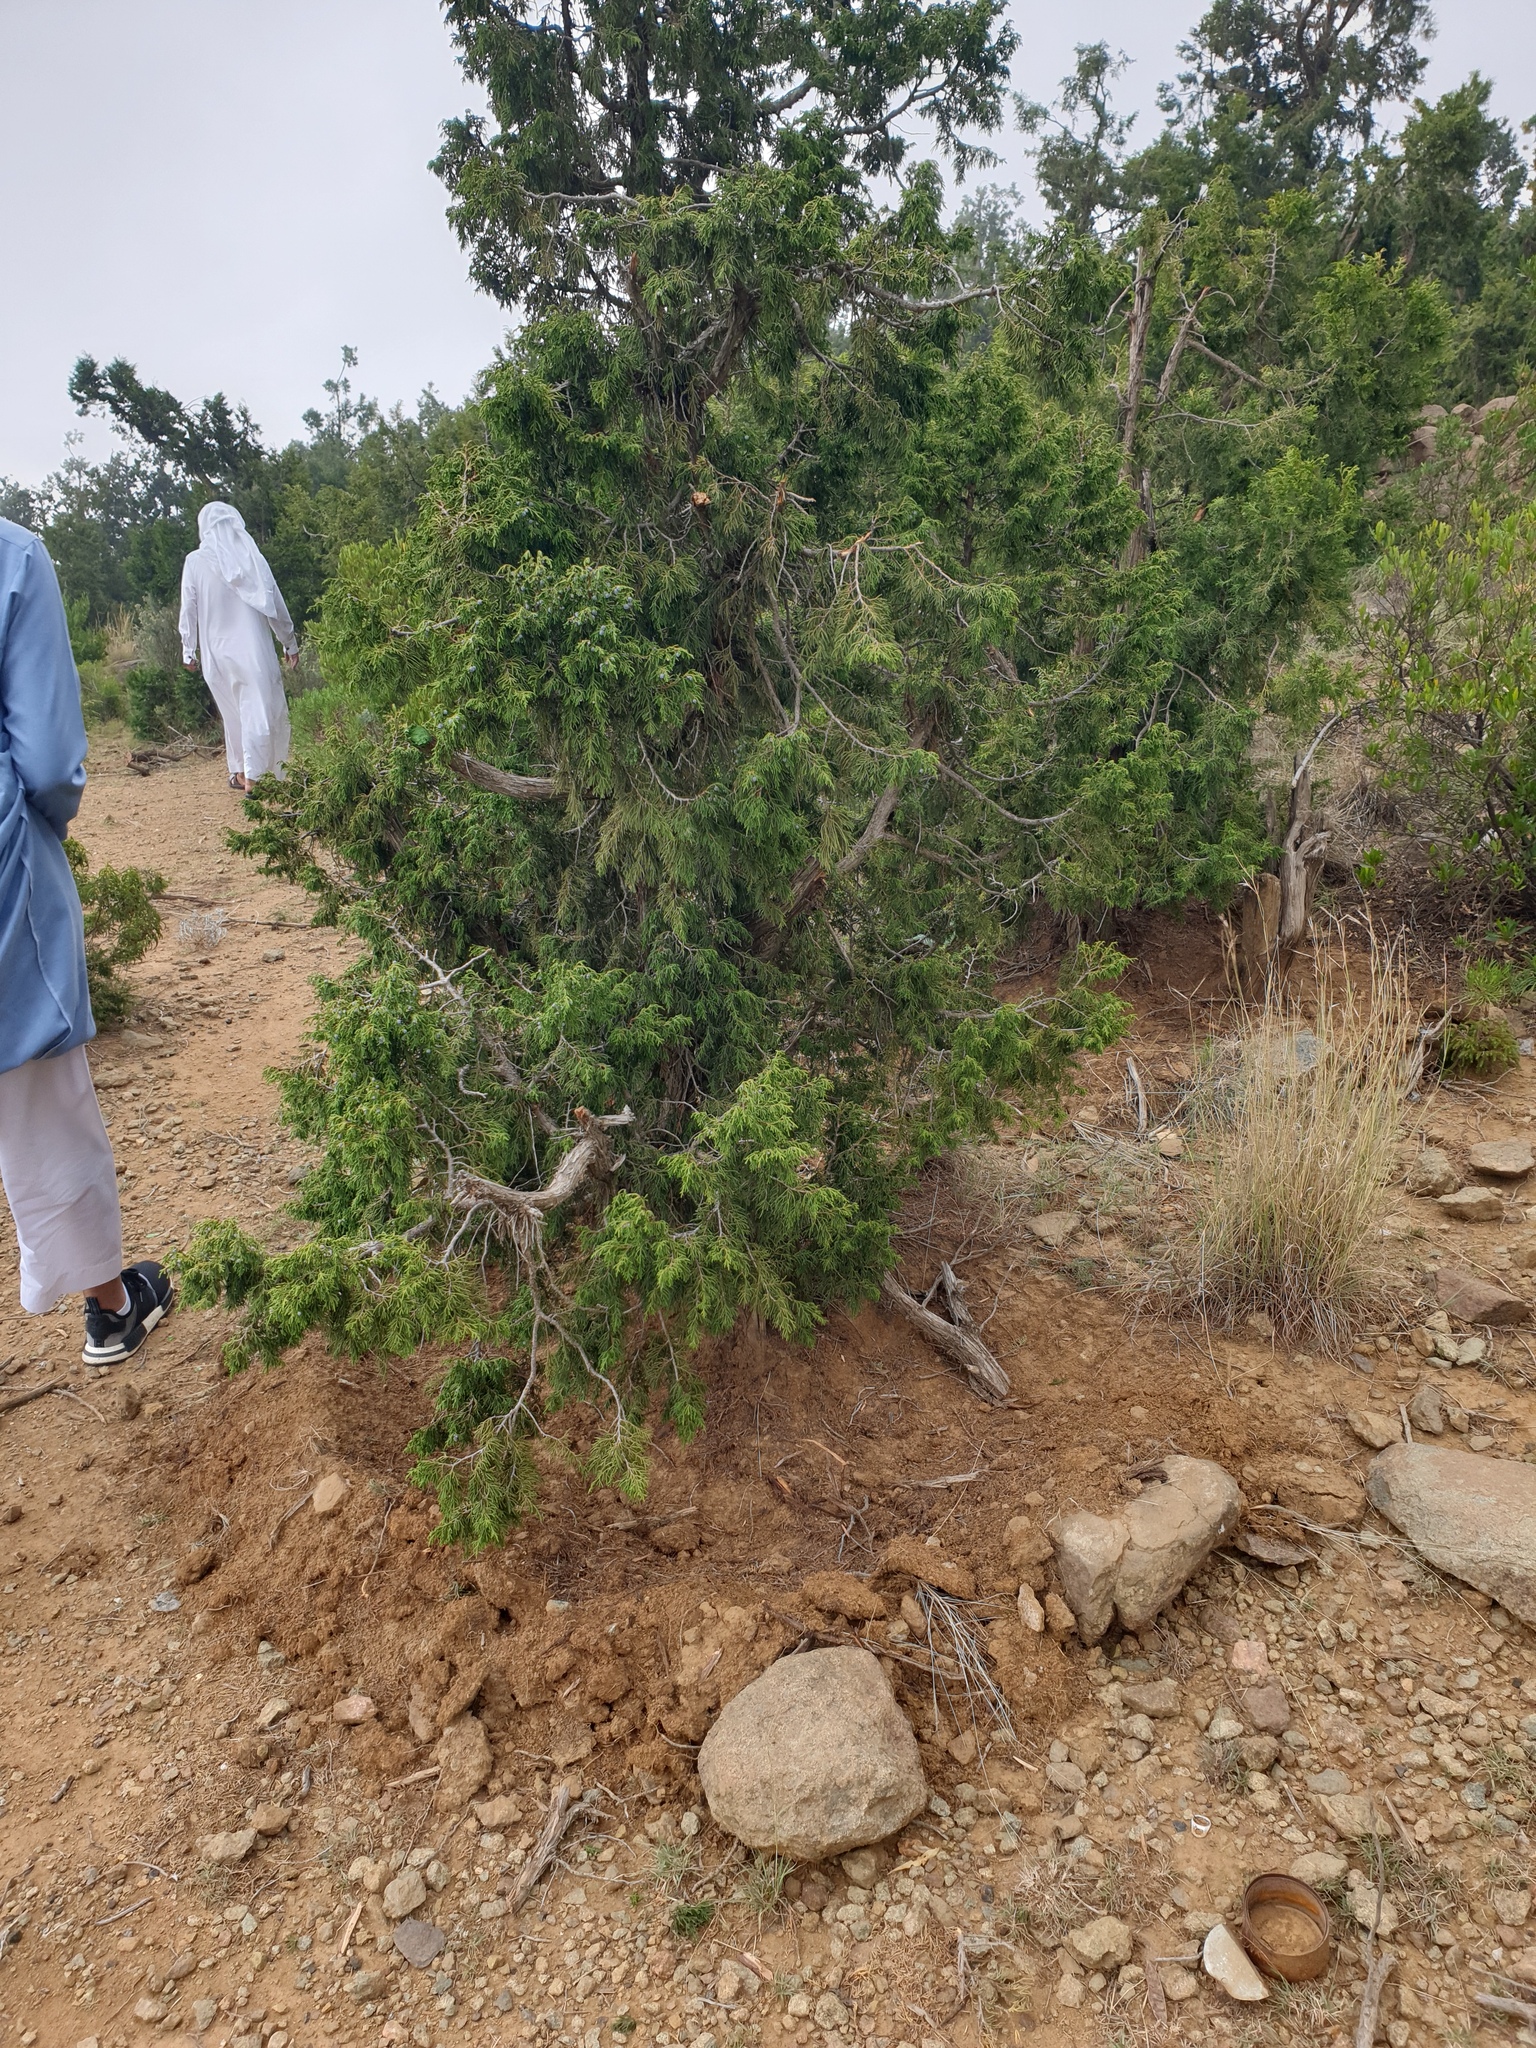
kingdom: Plantae
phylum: Tracheophyta
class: Pinopsida
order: Pinales
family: Cupressaceae
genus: Juniperus
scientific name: Juniperus procera
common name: African juniper
